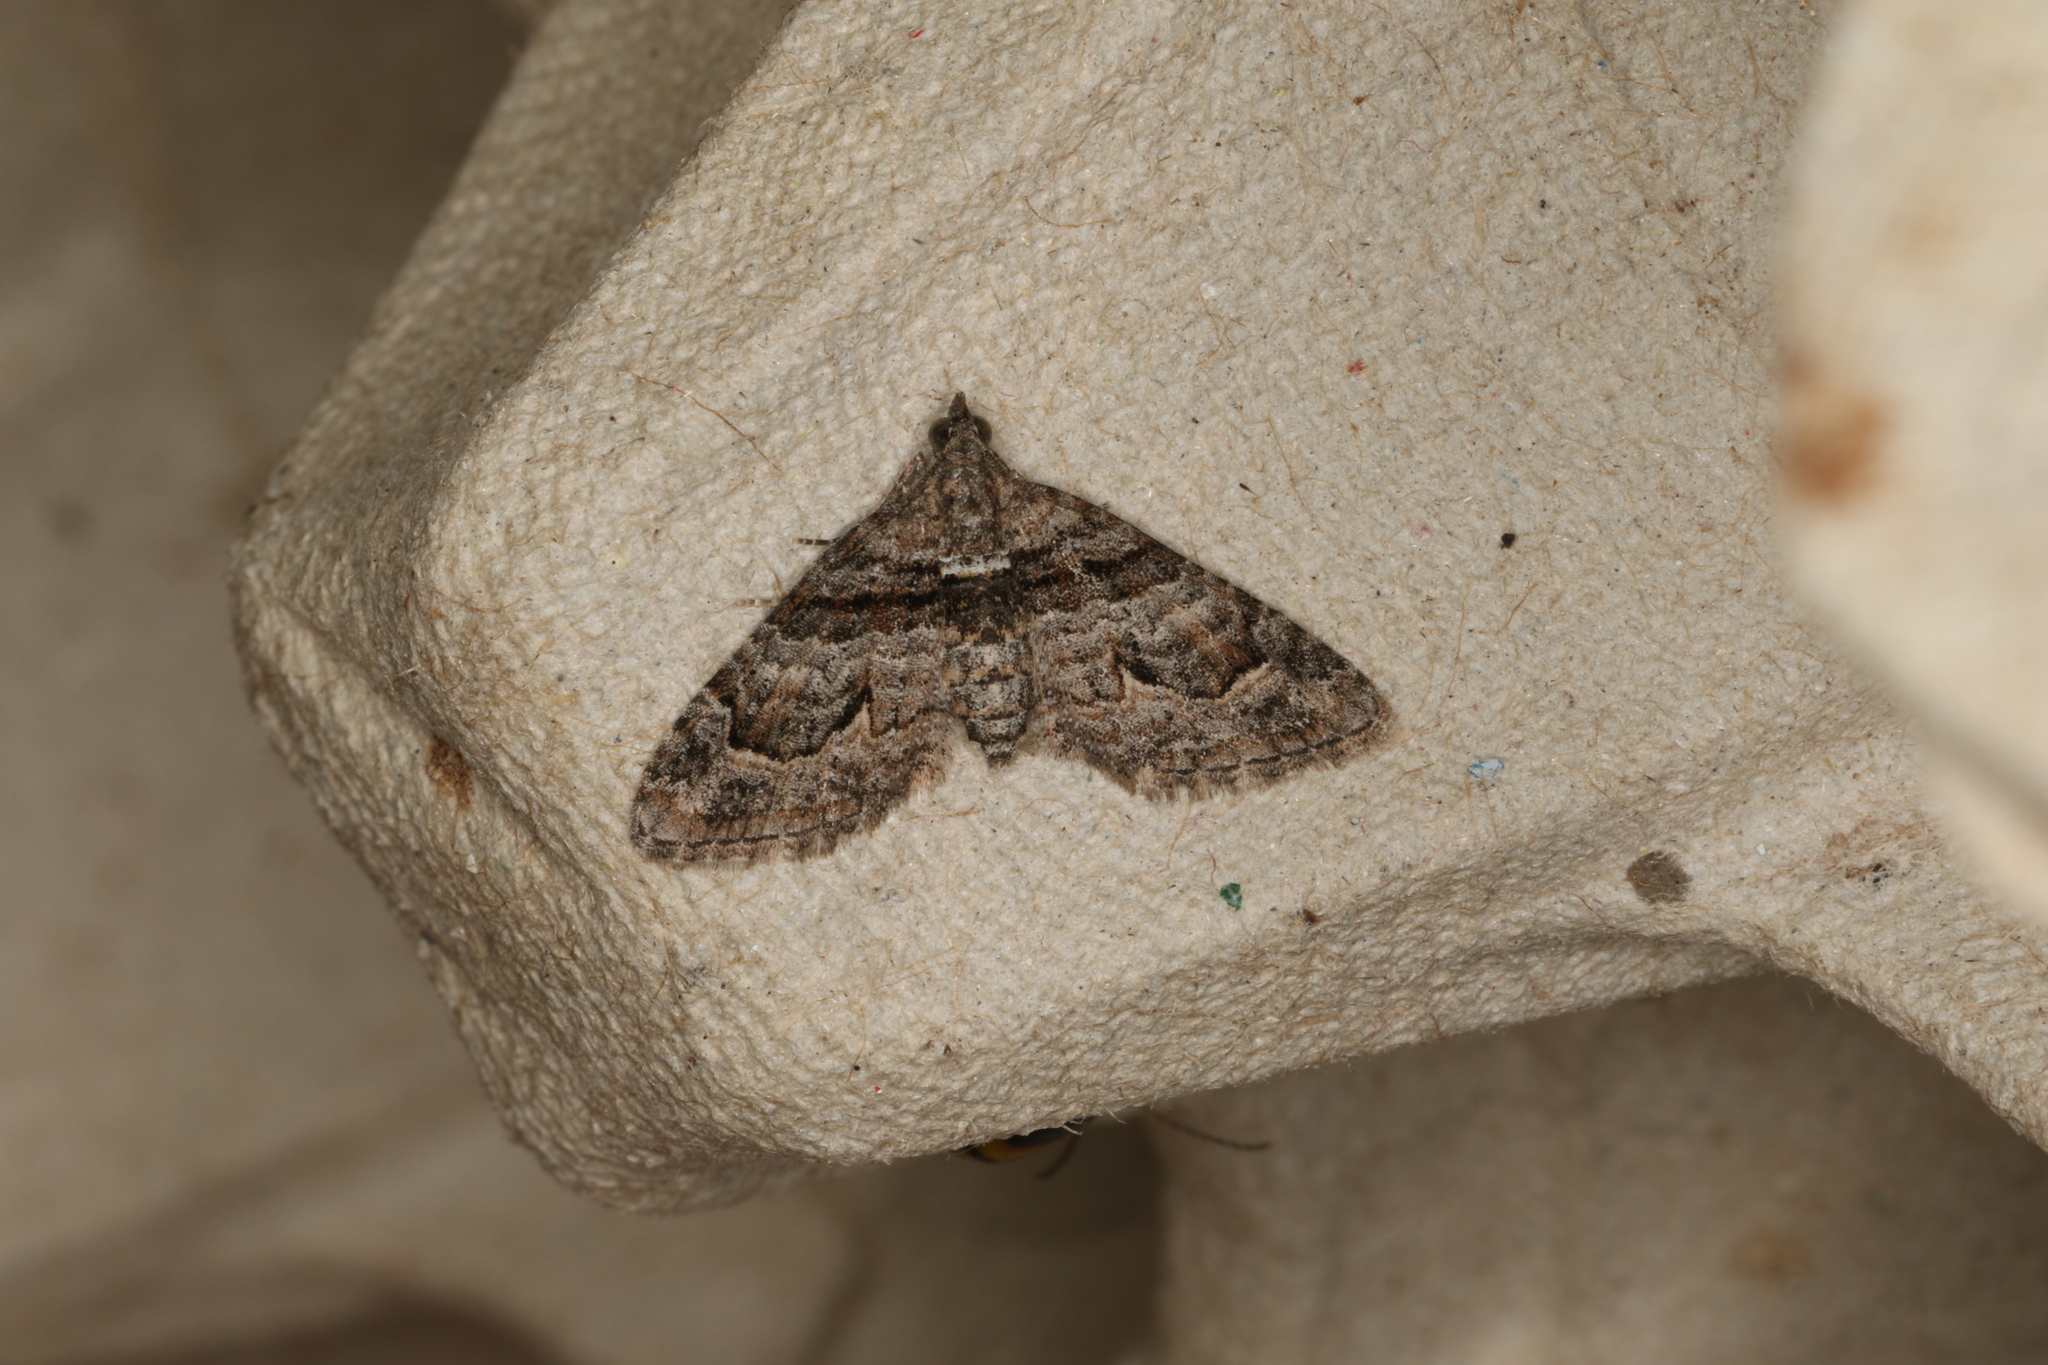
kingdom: Animalia
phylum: Arthropoda
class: Insecta
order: Lepidoptera
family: Geometridae
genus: Phrissogonus
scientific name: Phrissogonus laticostata
